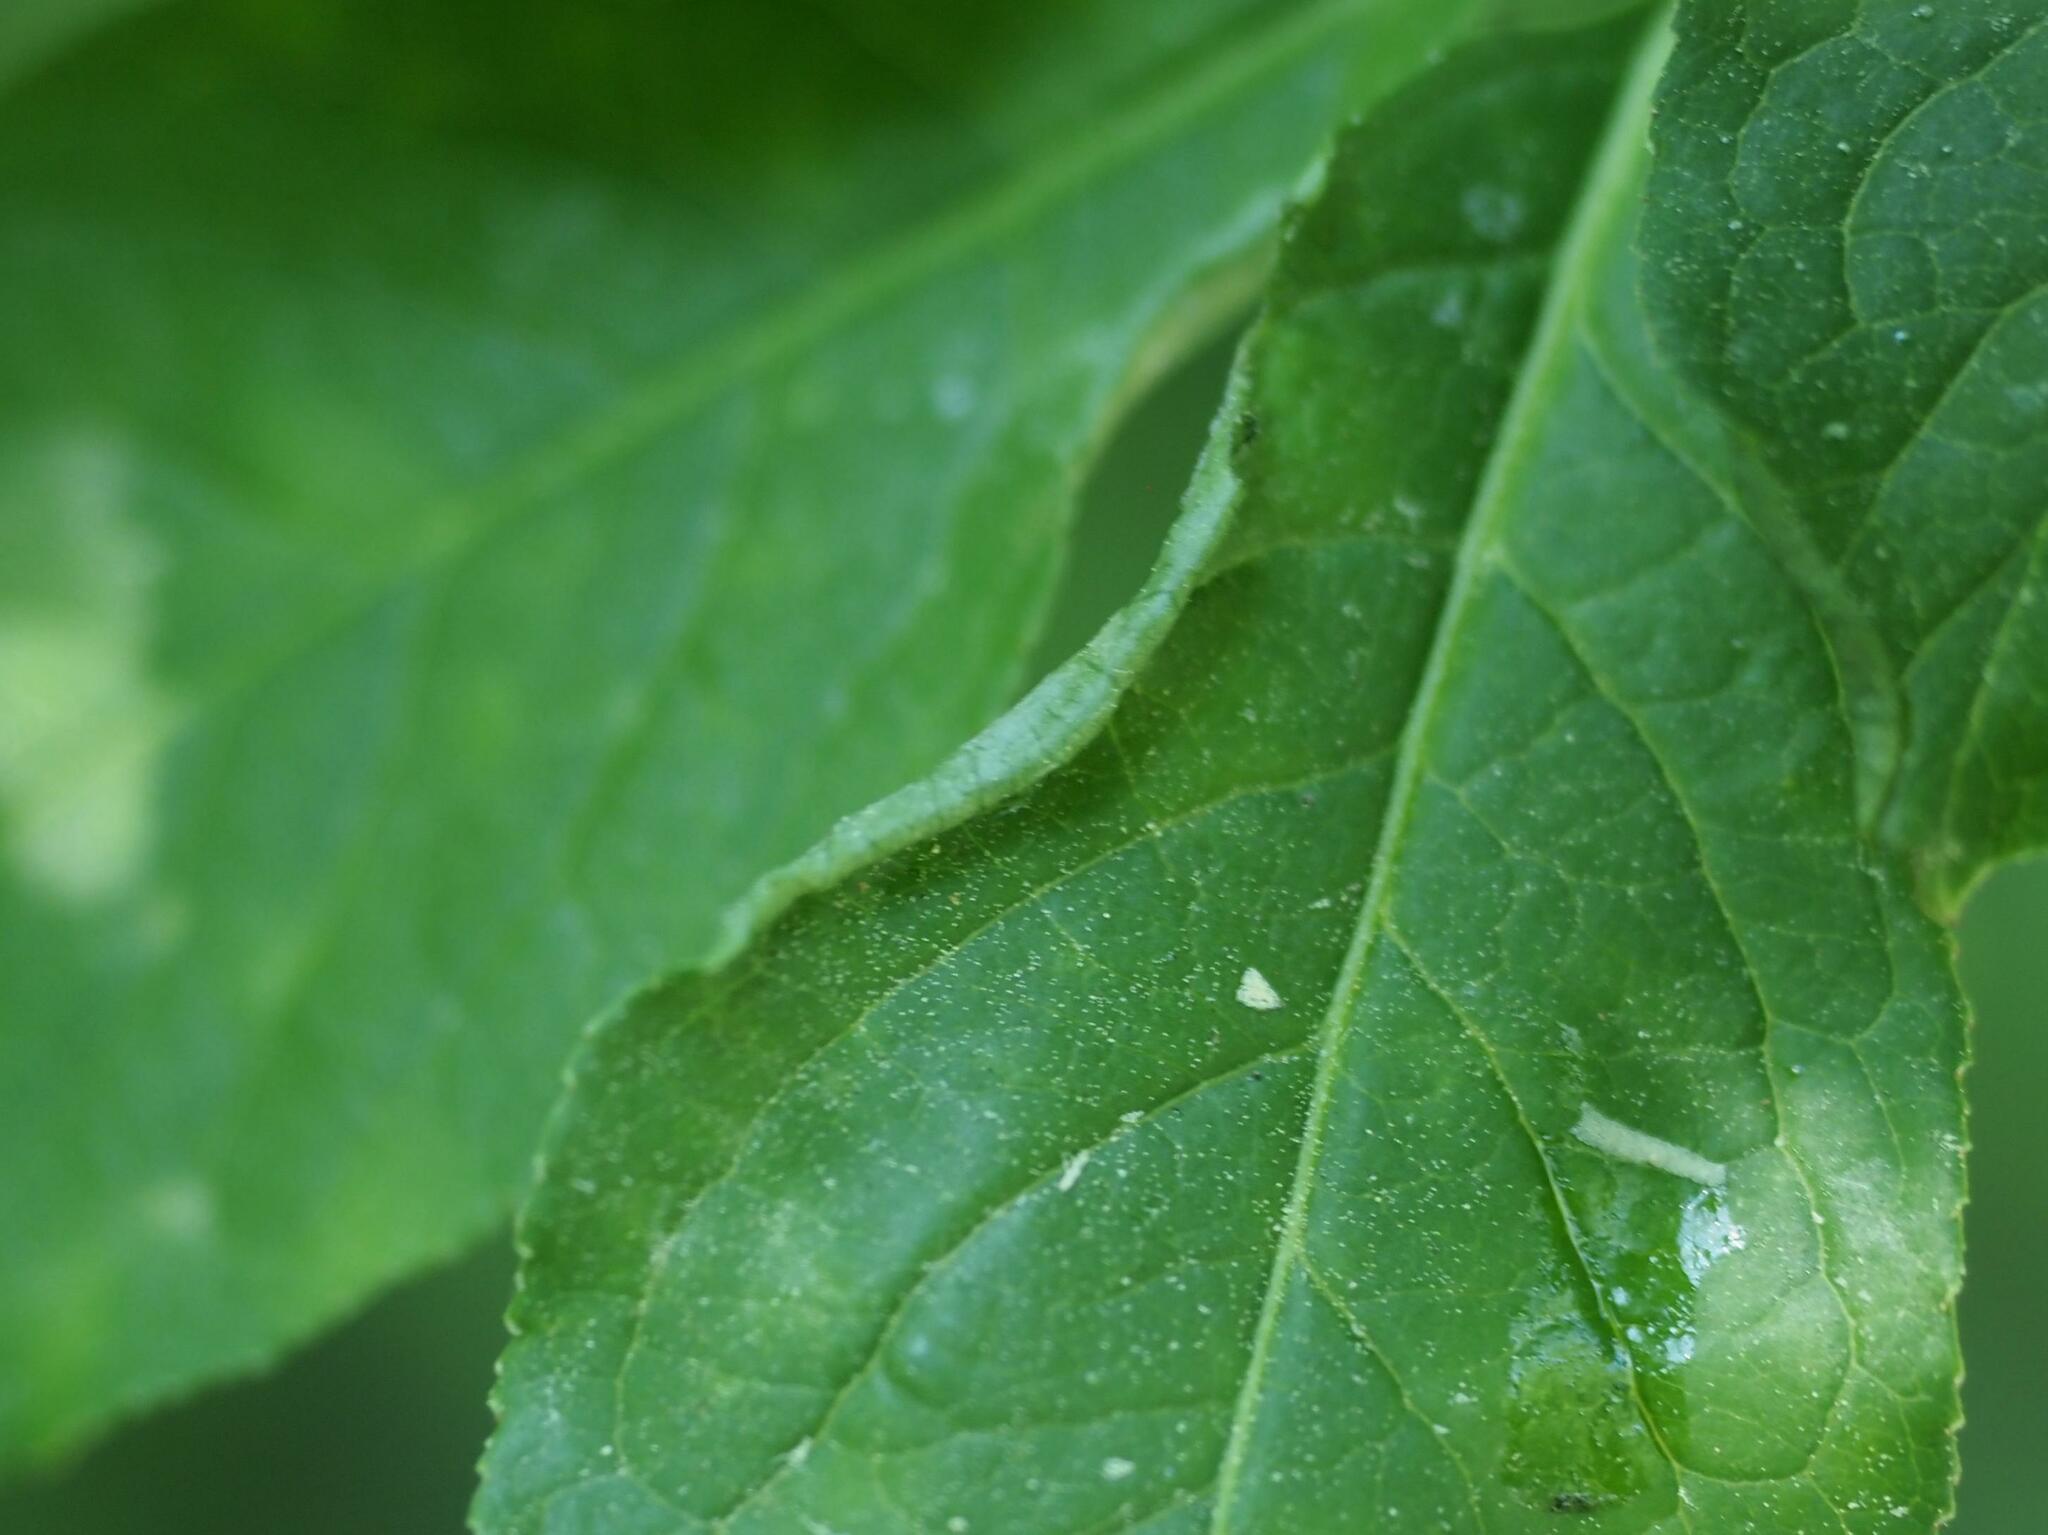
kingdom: Animalia
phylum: Arthropoda
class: Arachnida
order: Trombidiformes
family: Eriophyidae
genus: Stenacis
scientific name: Stenacis evonymi
